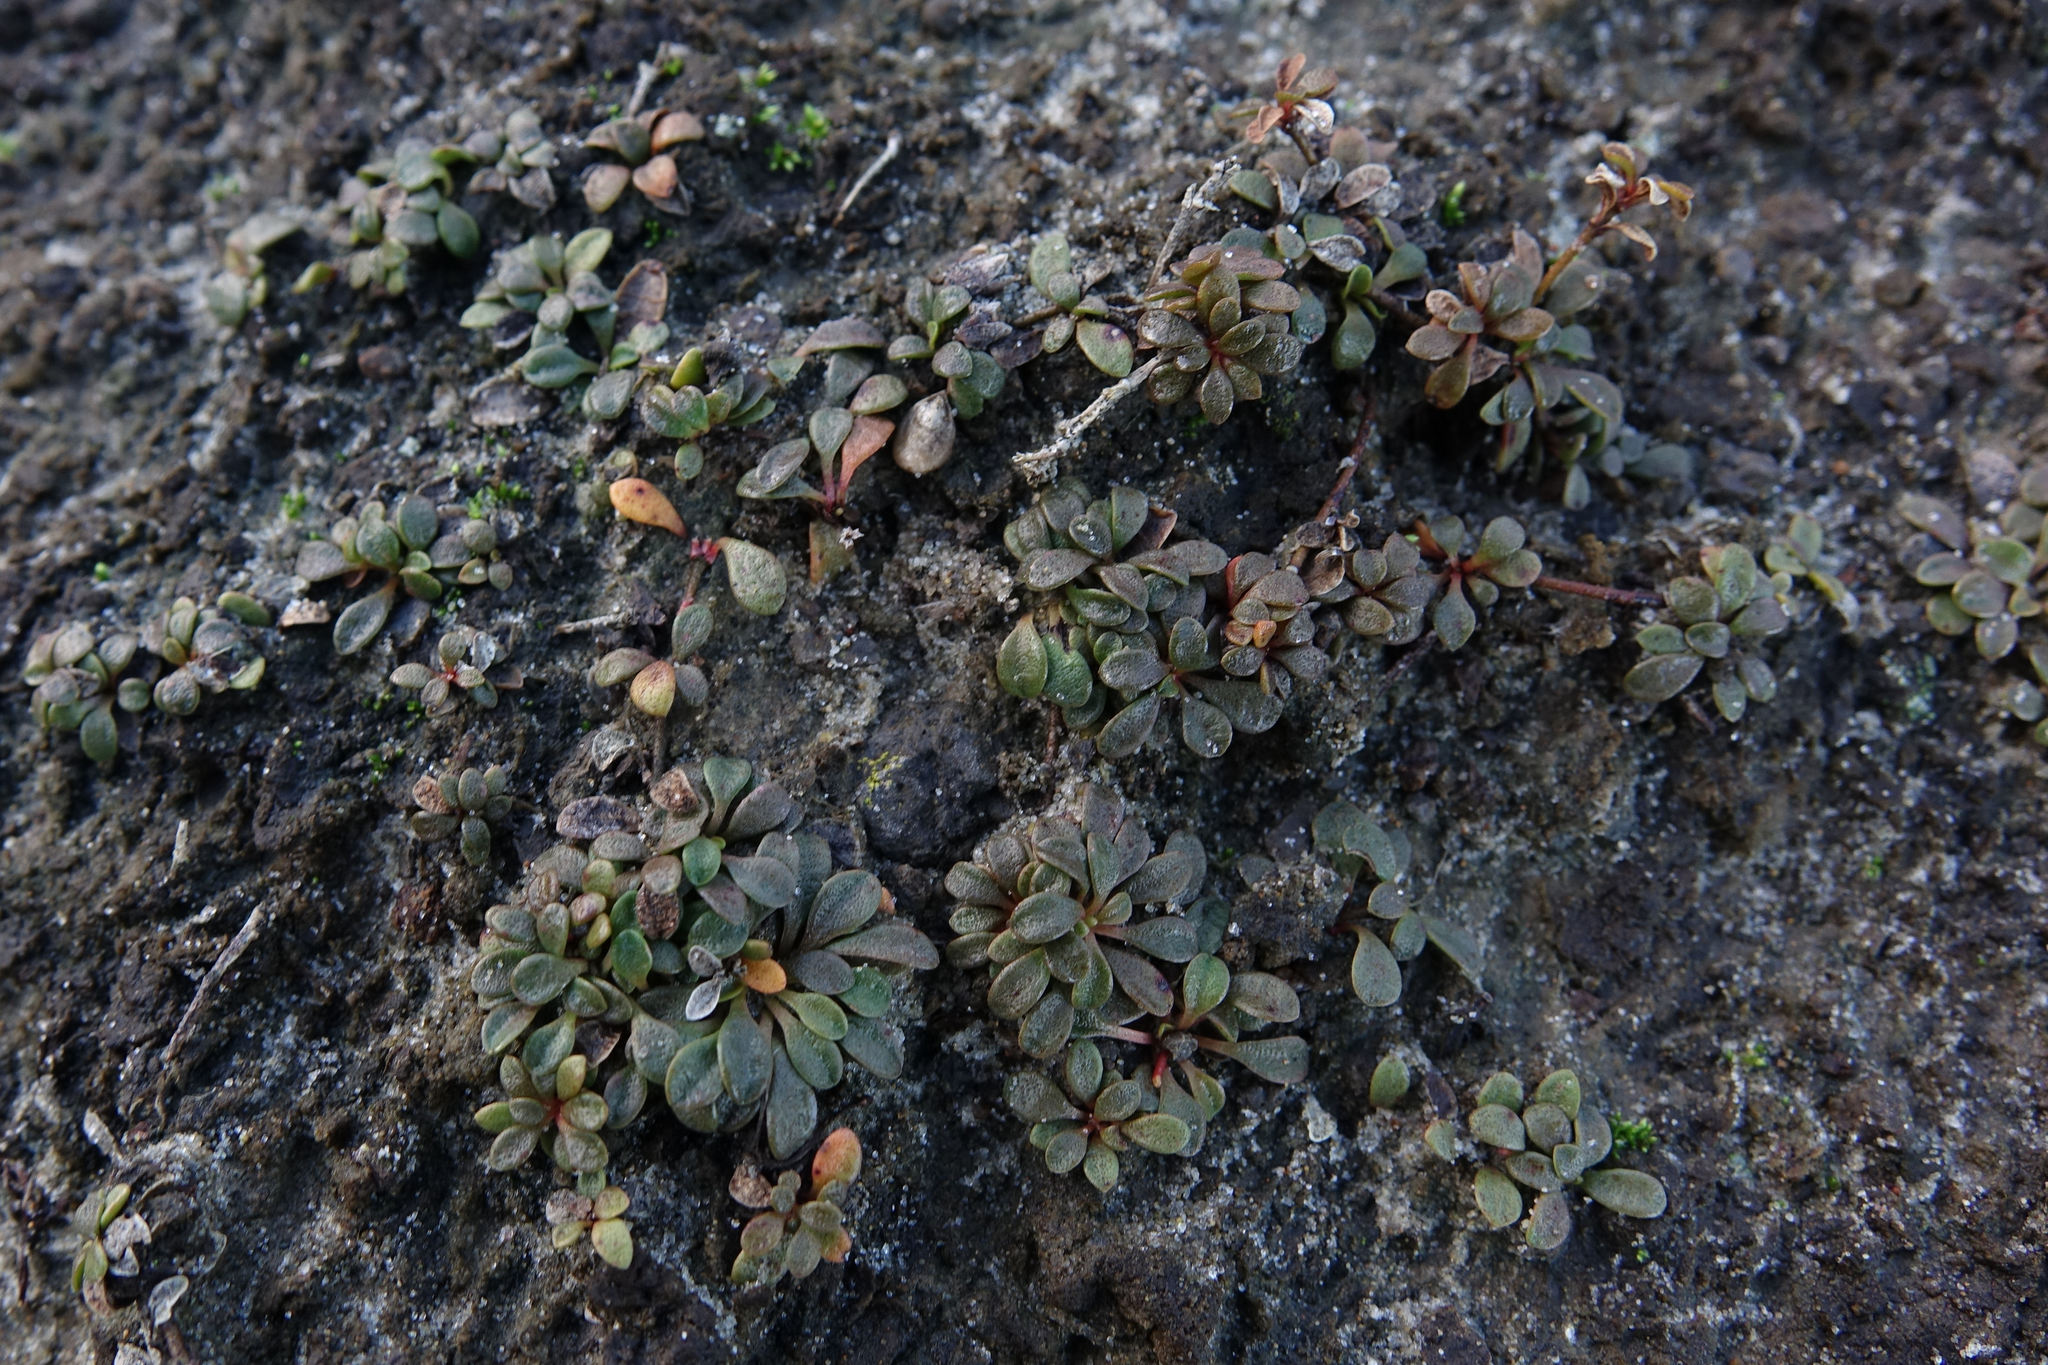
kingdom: Plantae
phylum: Tracheophyta
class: Magnoliopsida
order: Ericales
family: Primulaceae
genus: Samolus
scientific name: Samolus repens
